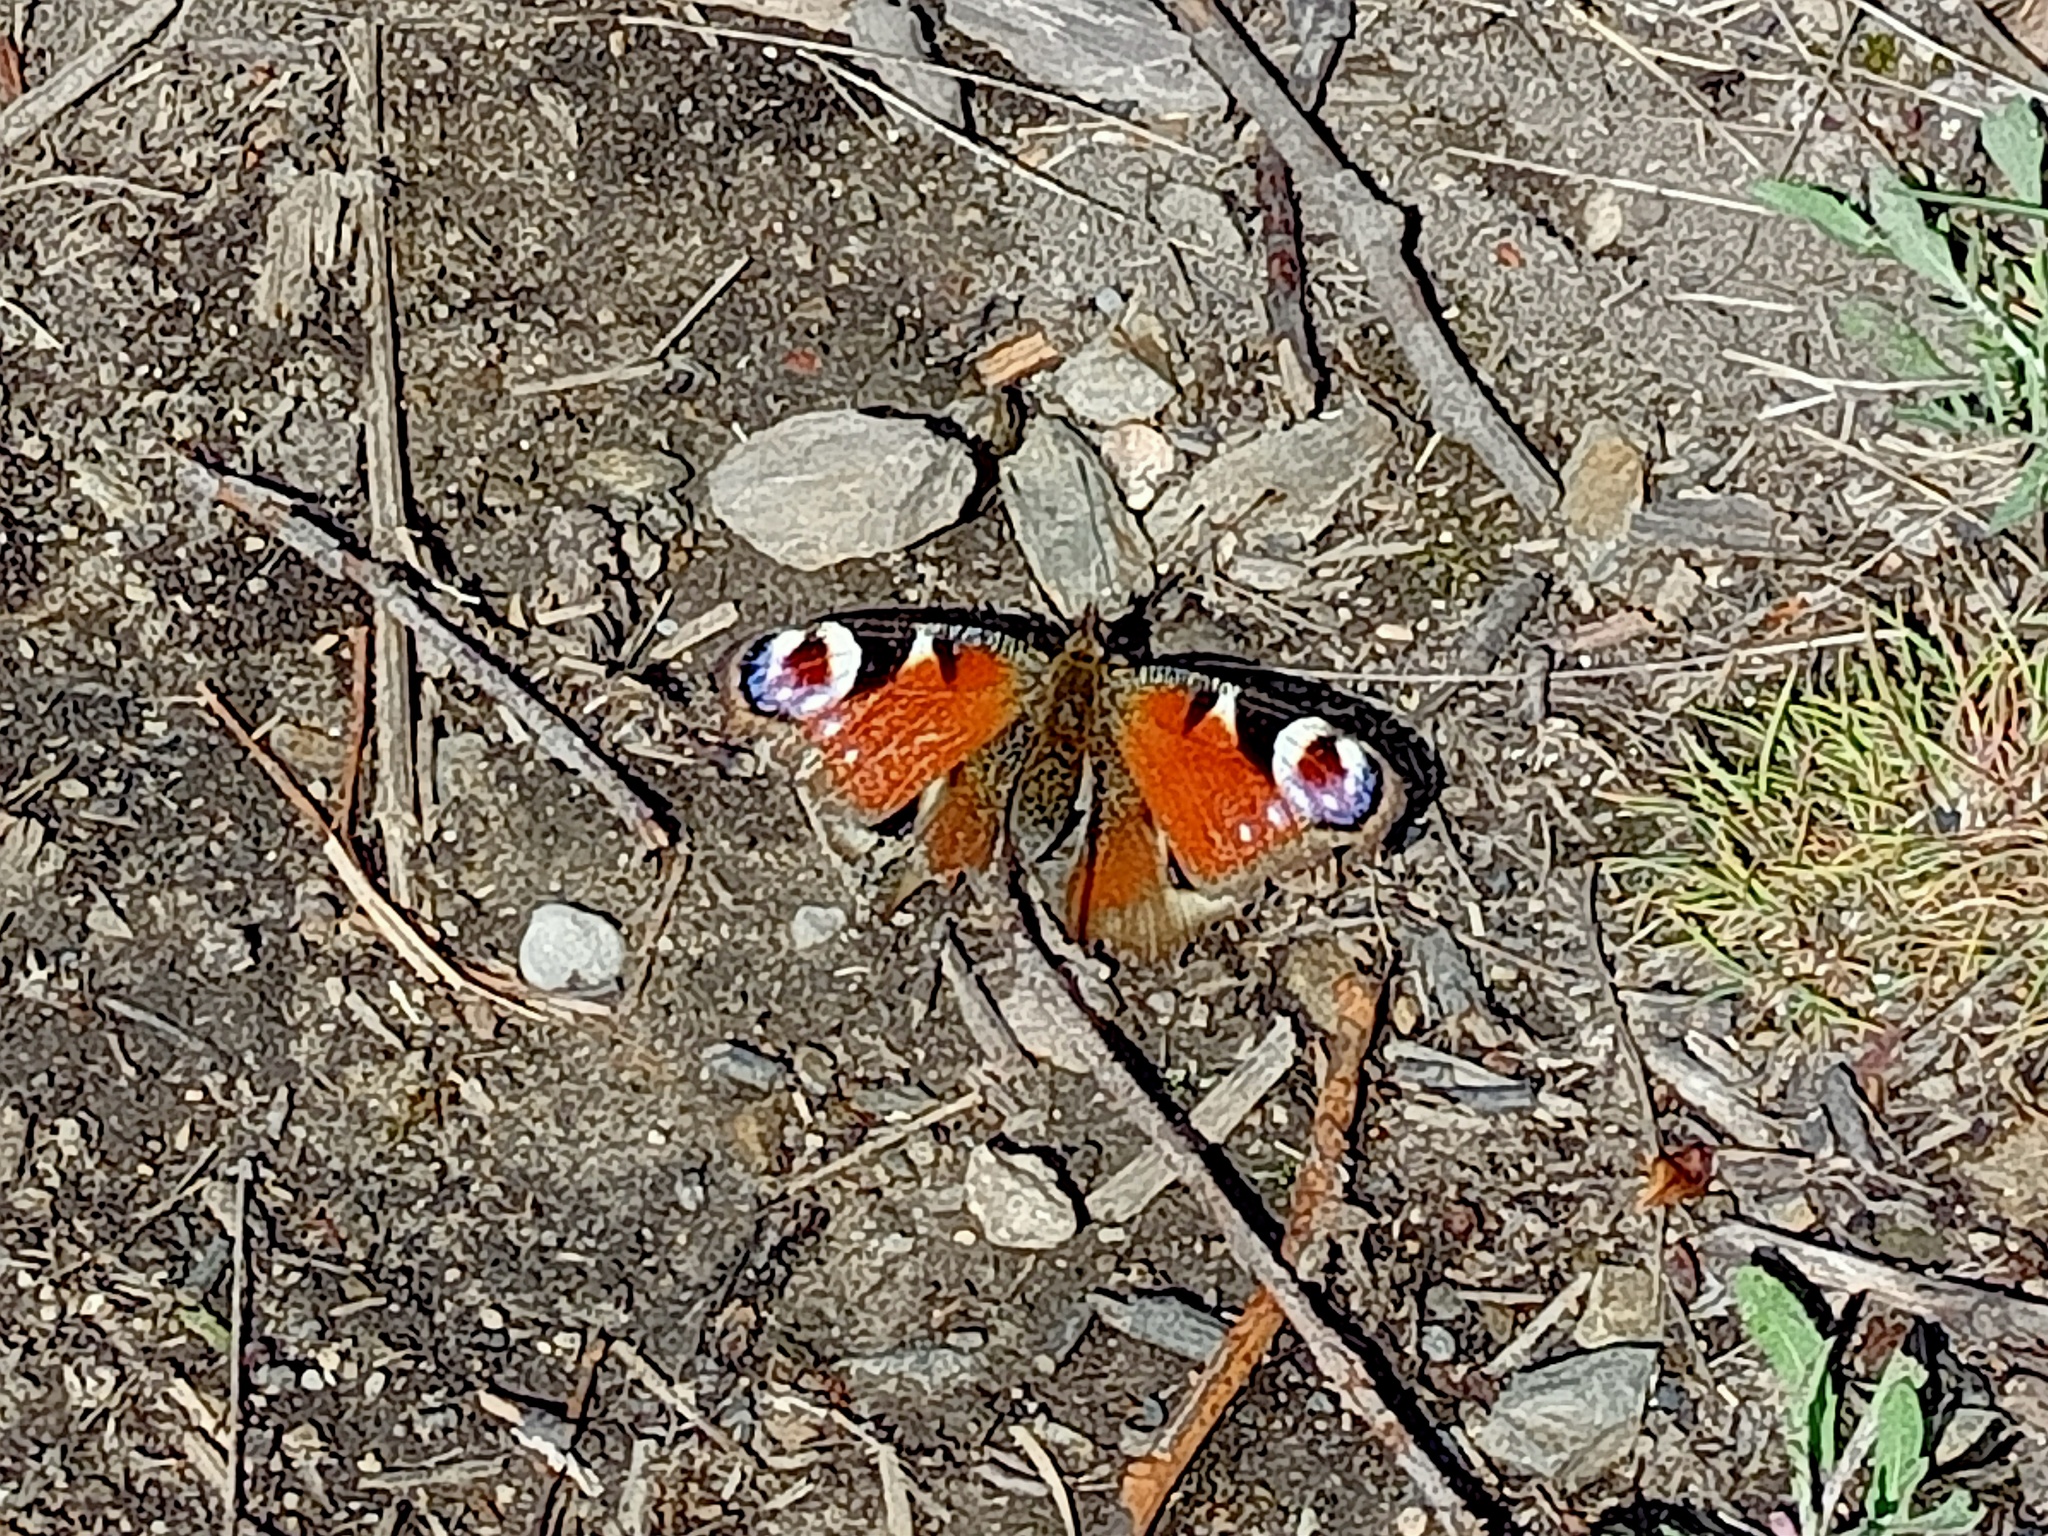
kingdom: Animalia
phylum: Arthropoda
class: Insecta
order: Lepidoptera
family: Nymphalidae
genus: Aglais
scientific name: Aglais io
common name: Peacock
